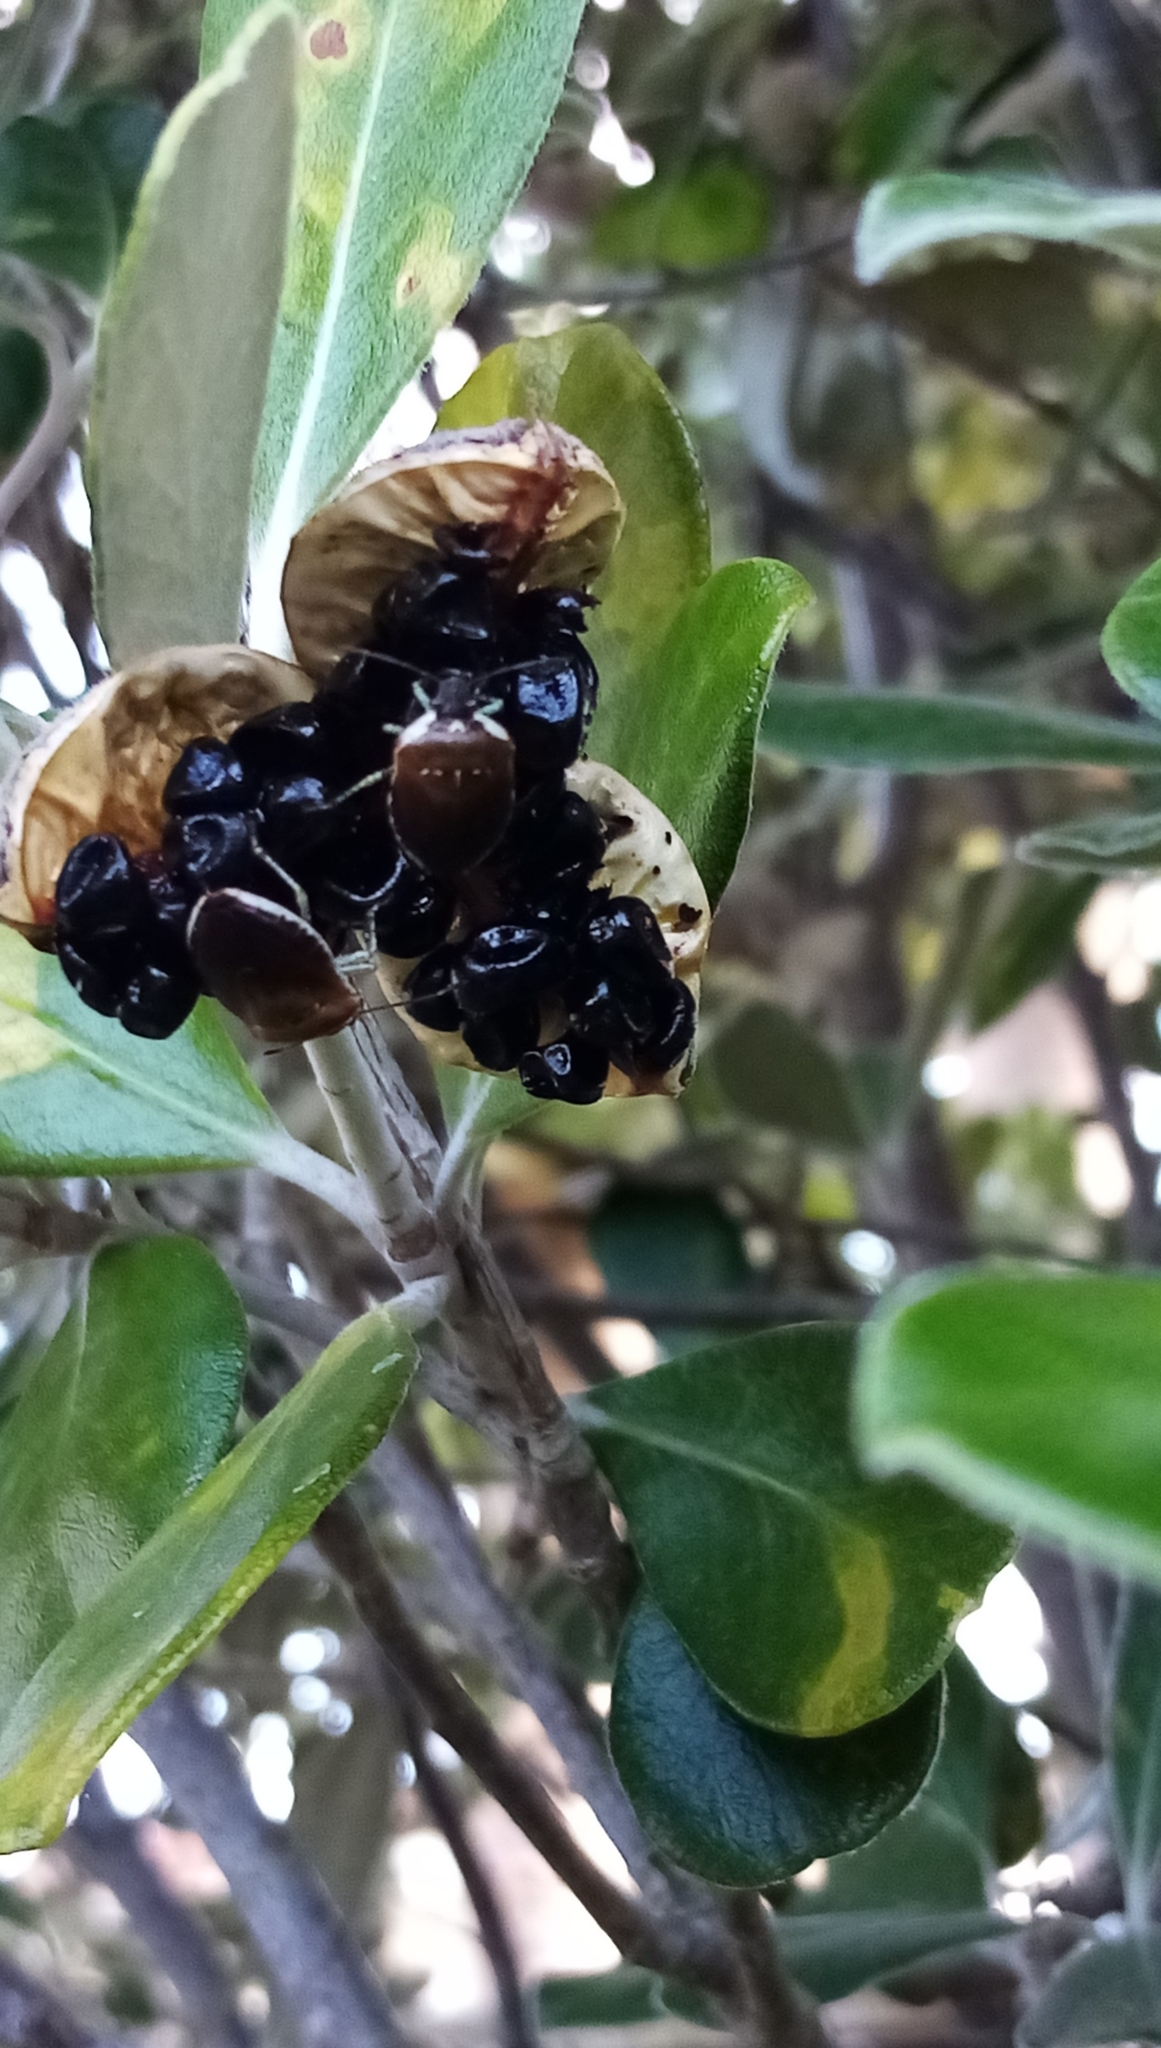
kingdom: Animalia
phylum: Arthropoda
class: Insecta
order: Hemiptera
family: Pentatomidae
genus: Monteithiella
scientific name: Monteithiella
